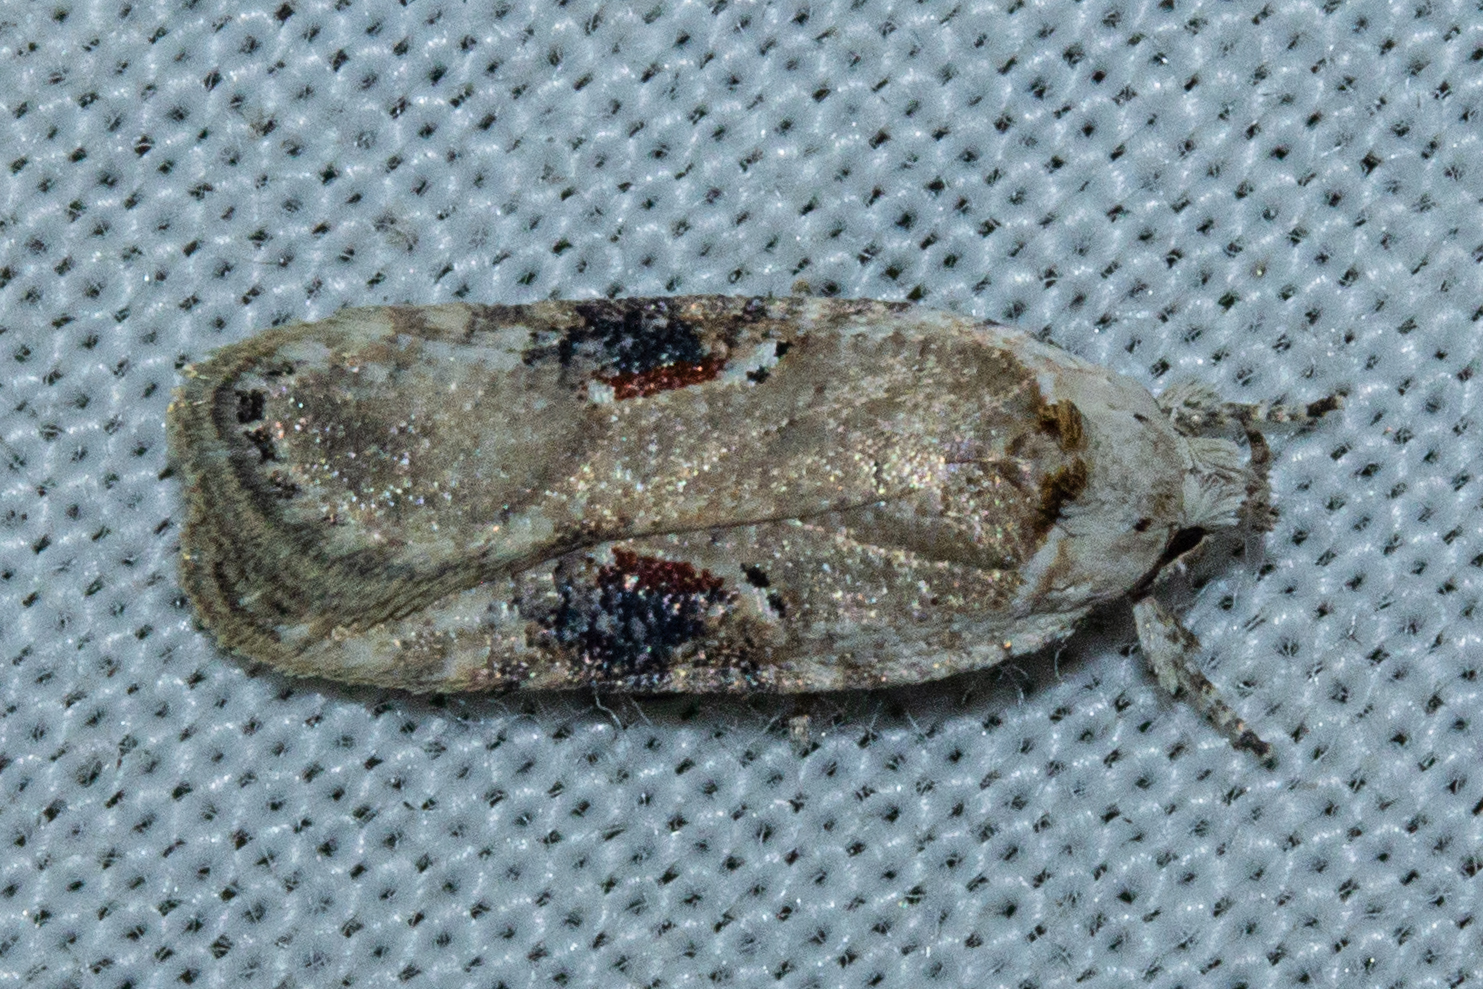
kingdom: Animalia
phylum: Arthropoda
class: Insecta
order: Lepidoptera
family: Depressariidae
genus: Agonopterix
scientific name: Agonopterix alstroemeriana
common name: Moth
